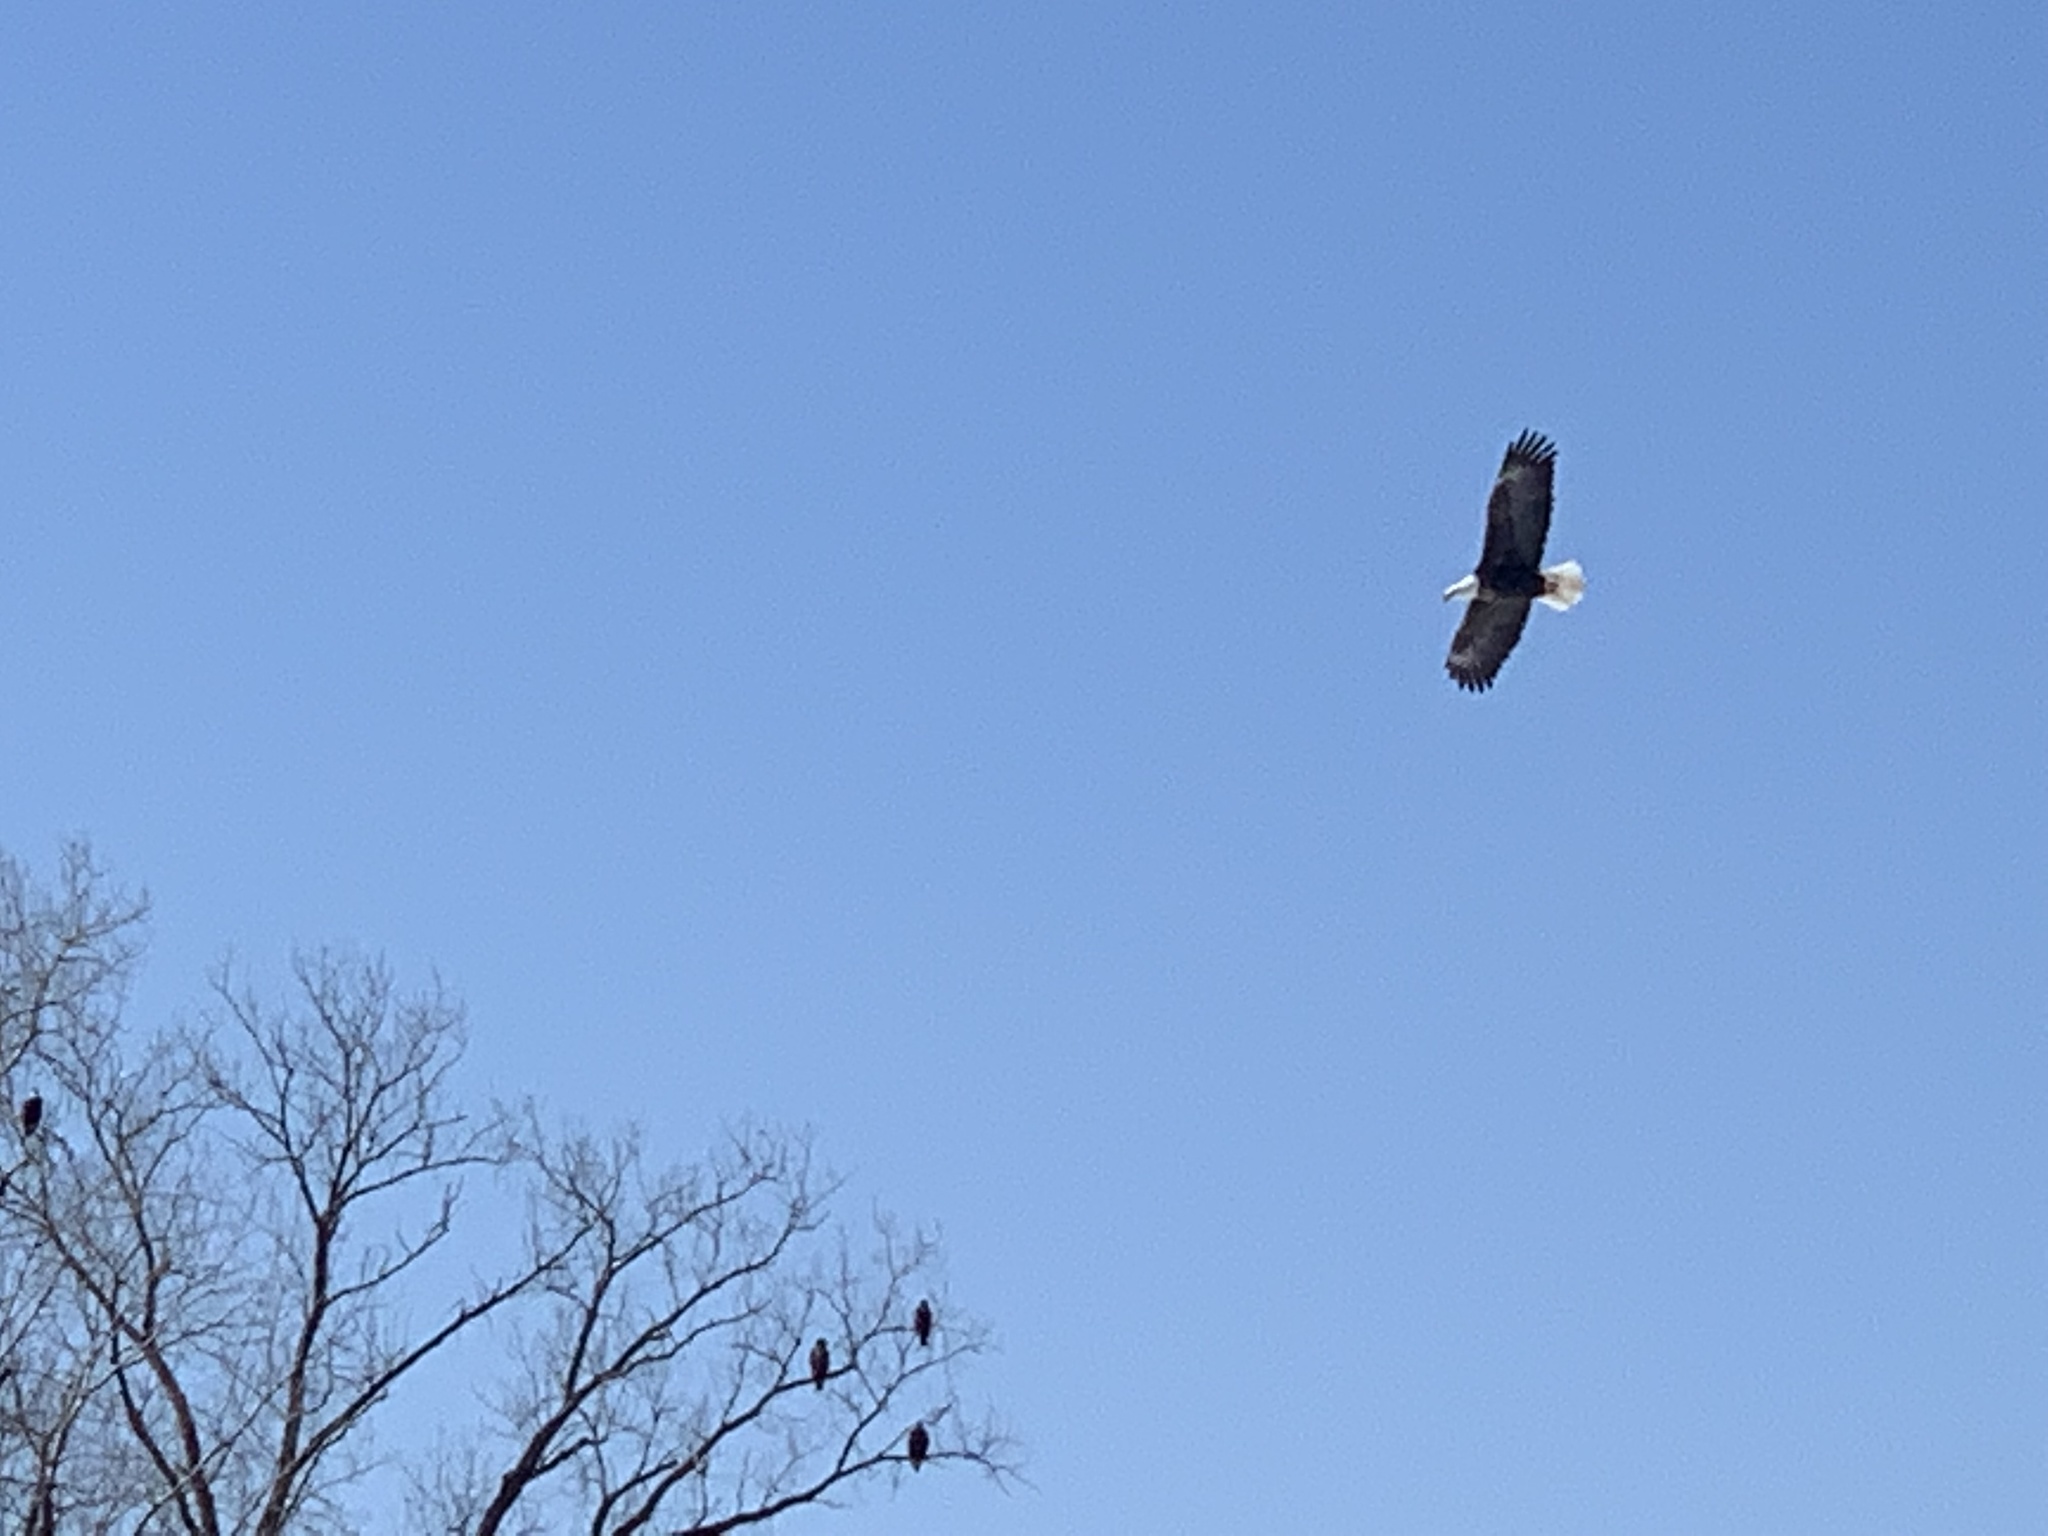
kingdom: Animalia
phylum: Chordata
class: Aves
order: Accipitriformes
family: Accipitridae
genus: Haliaeetus
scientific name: Haliaeetus leucocephalus
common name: Bald eagle
